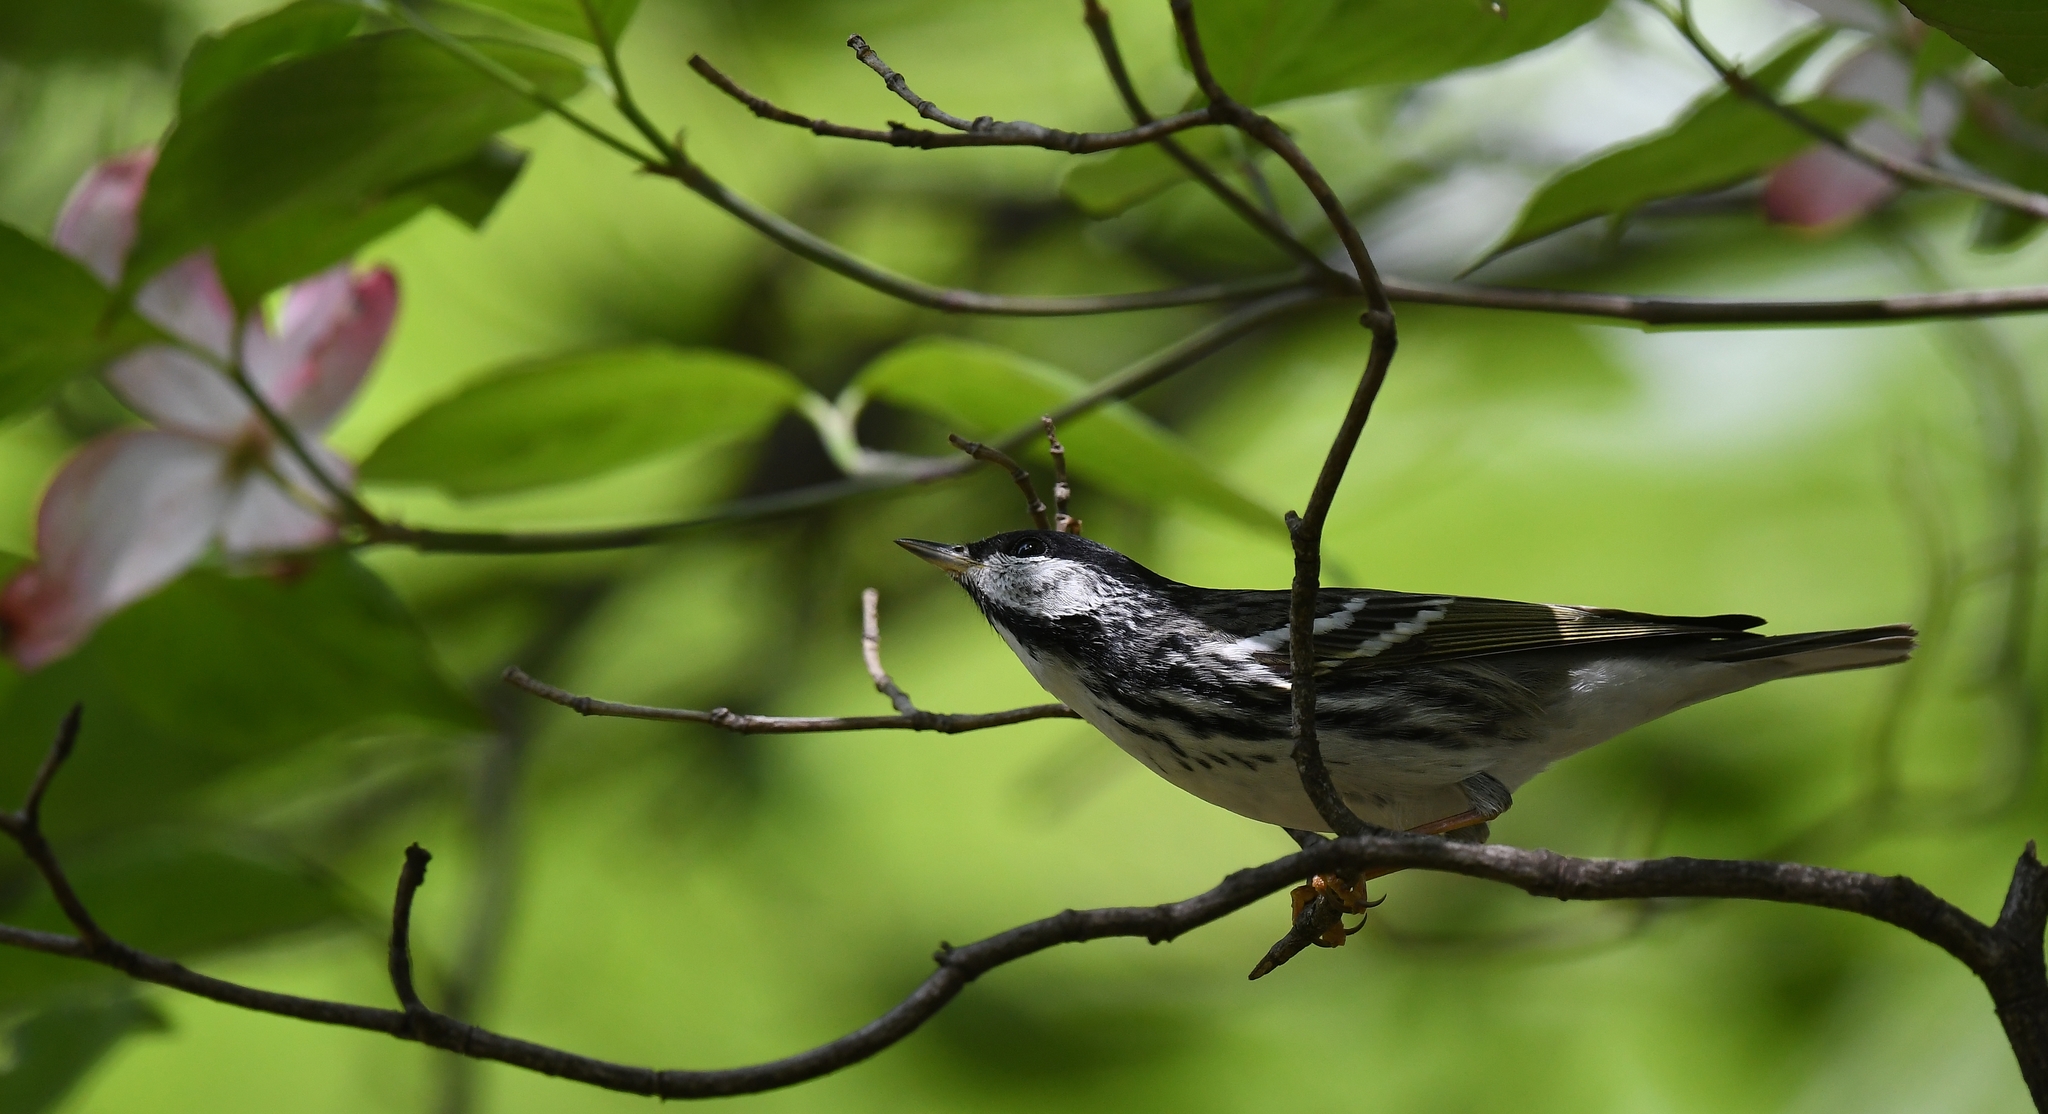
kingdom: Animalia
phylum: Chordata
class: Aves
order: Passeriformes
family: Parulidae
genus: Setophaga
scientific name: Setophaga striata
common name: Blackpoll warbler
